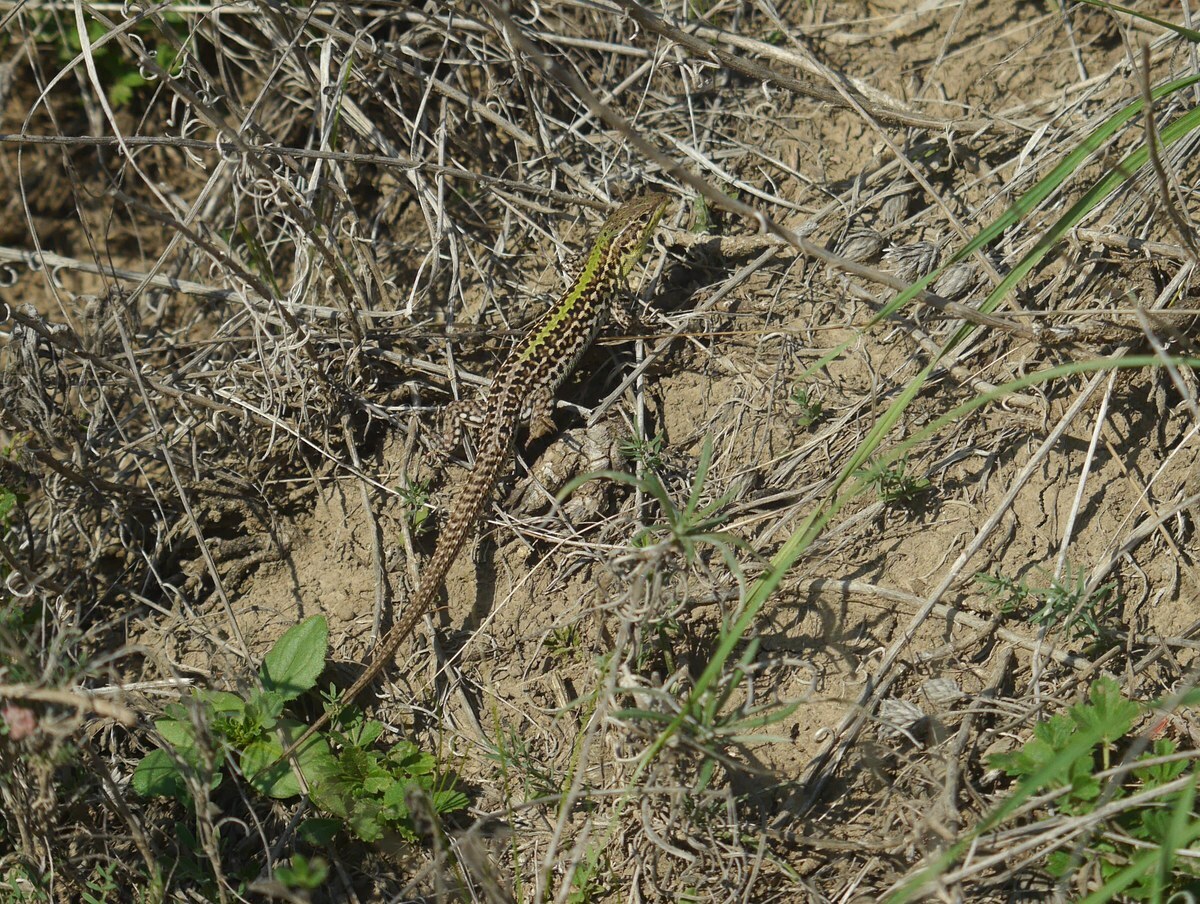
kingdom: Animalia
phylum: Chordata
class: Squamata
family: Lacertidae
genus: Podarcis
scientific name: Podarcis tauricus
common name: Balkan wall lizard
